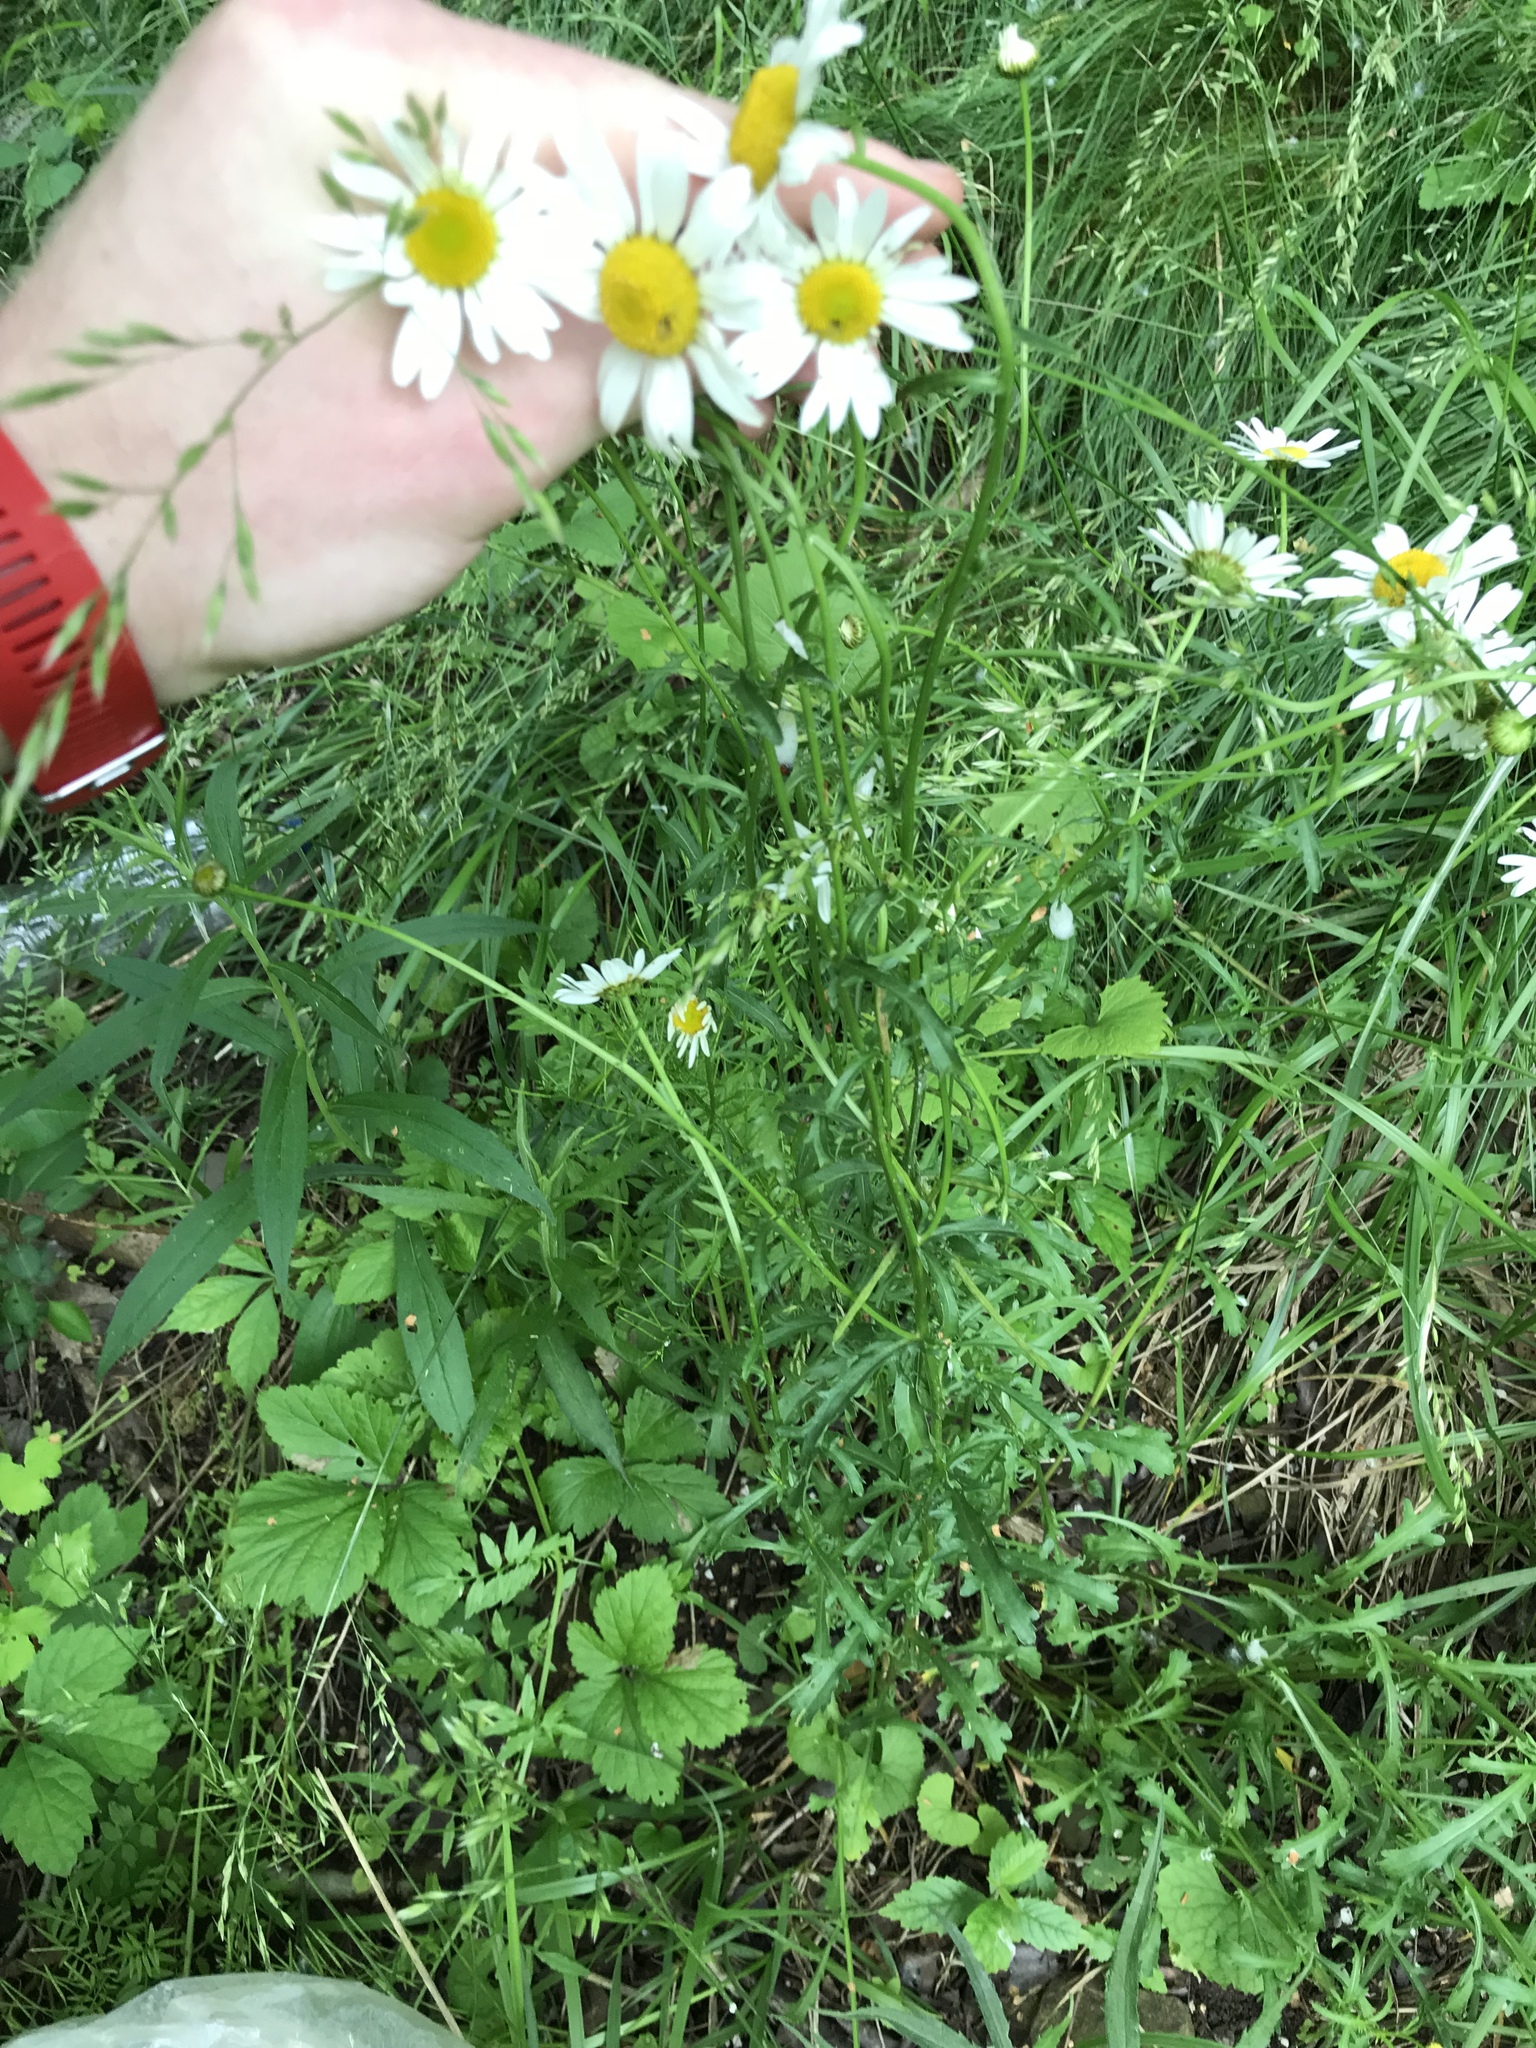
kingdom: Plantae
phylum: Tracheophyta
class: Magnoliopsida
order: Asterales
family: Asteraceae
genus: Leucanthemum
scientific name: Leucanthemum vulgare
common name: Oxeye daisy
